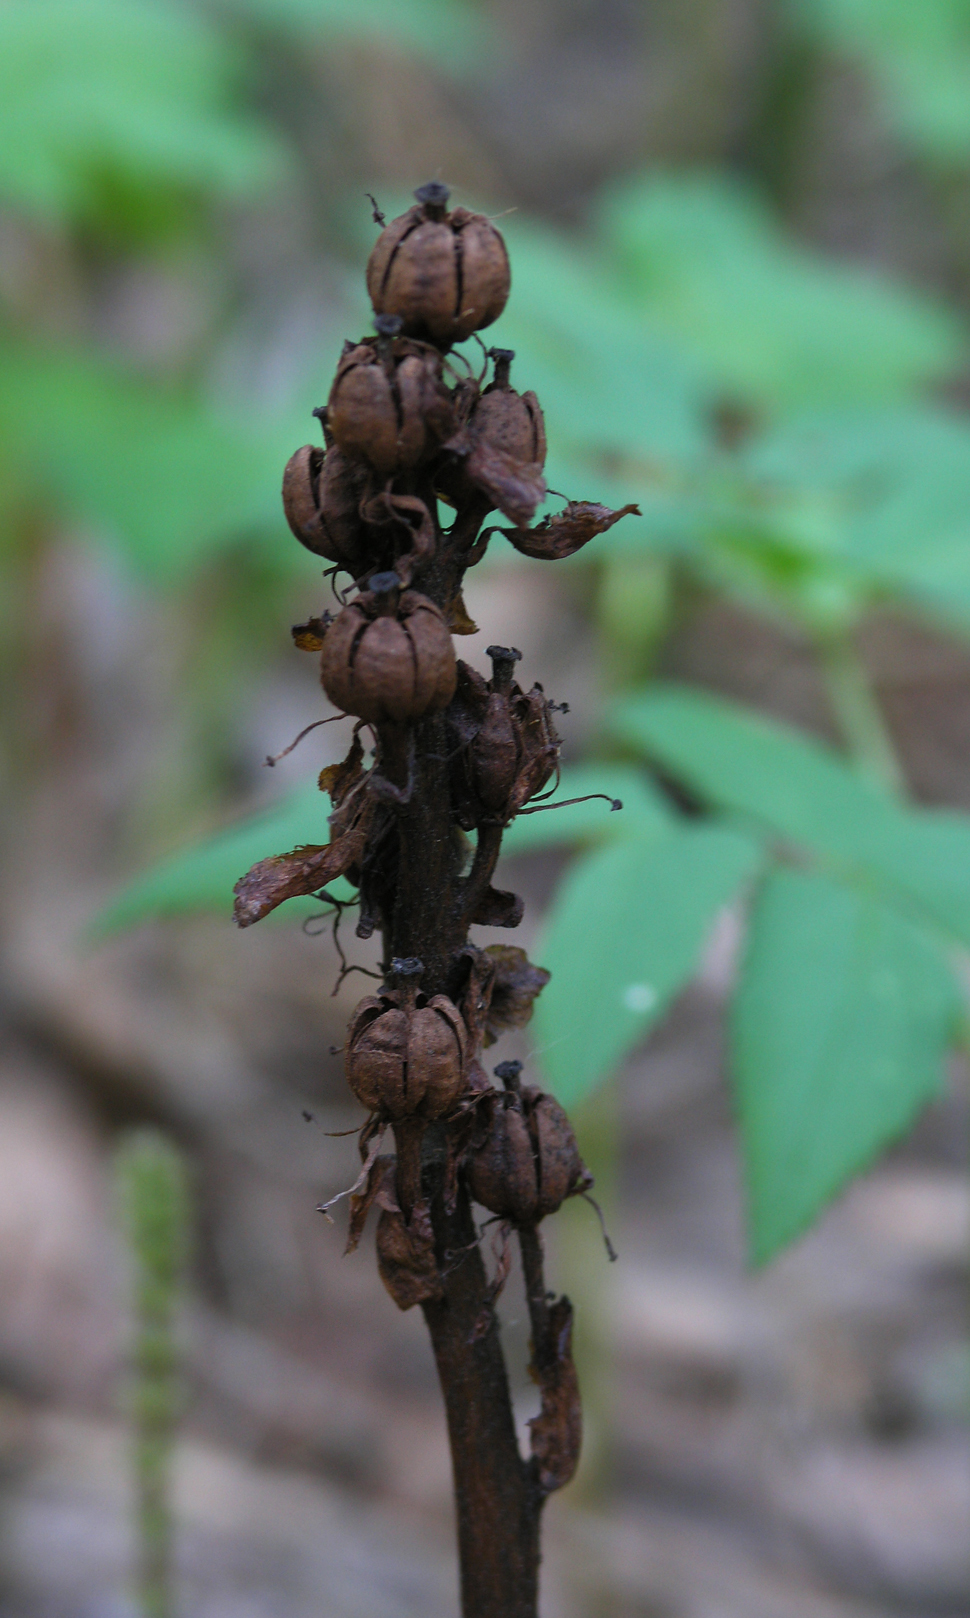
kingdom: Plantae
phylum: Tracheophyta
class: Magnoliopsida
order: Ericales
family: Ericaceae
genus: Hypopitys
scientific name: Hypopitys monotropa
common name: Yellow bird's-nest
